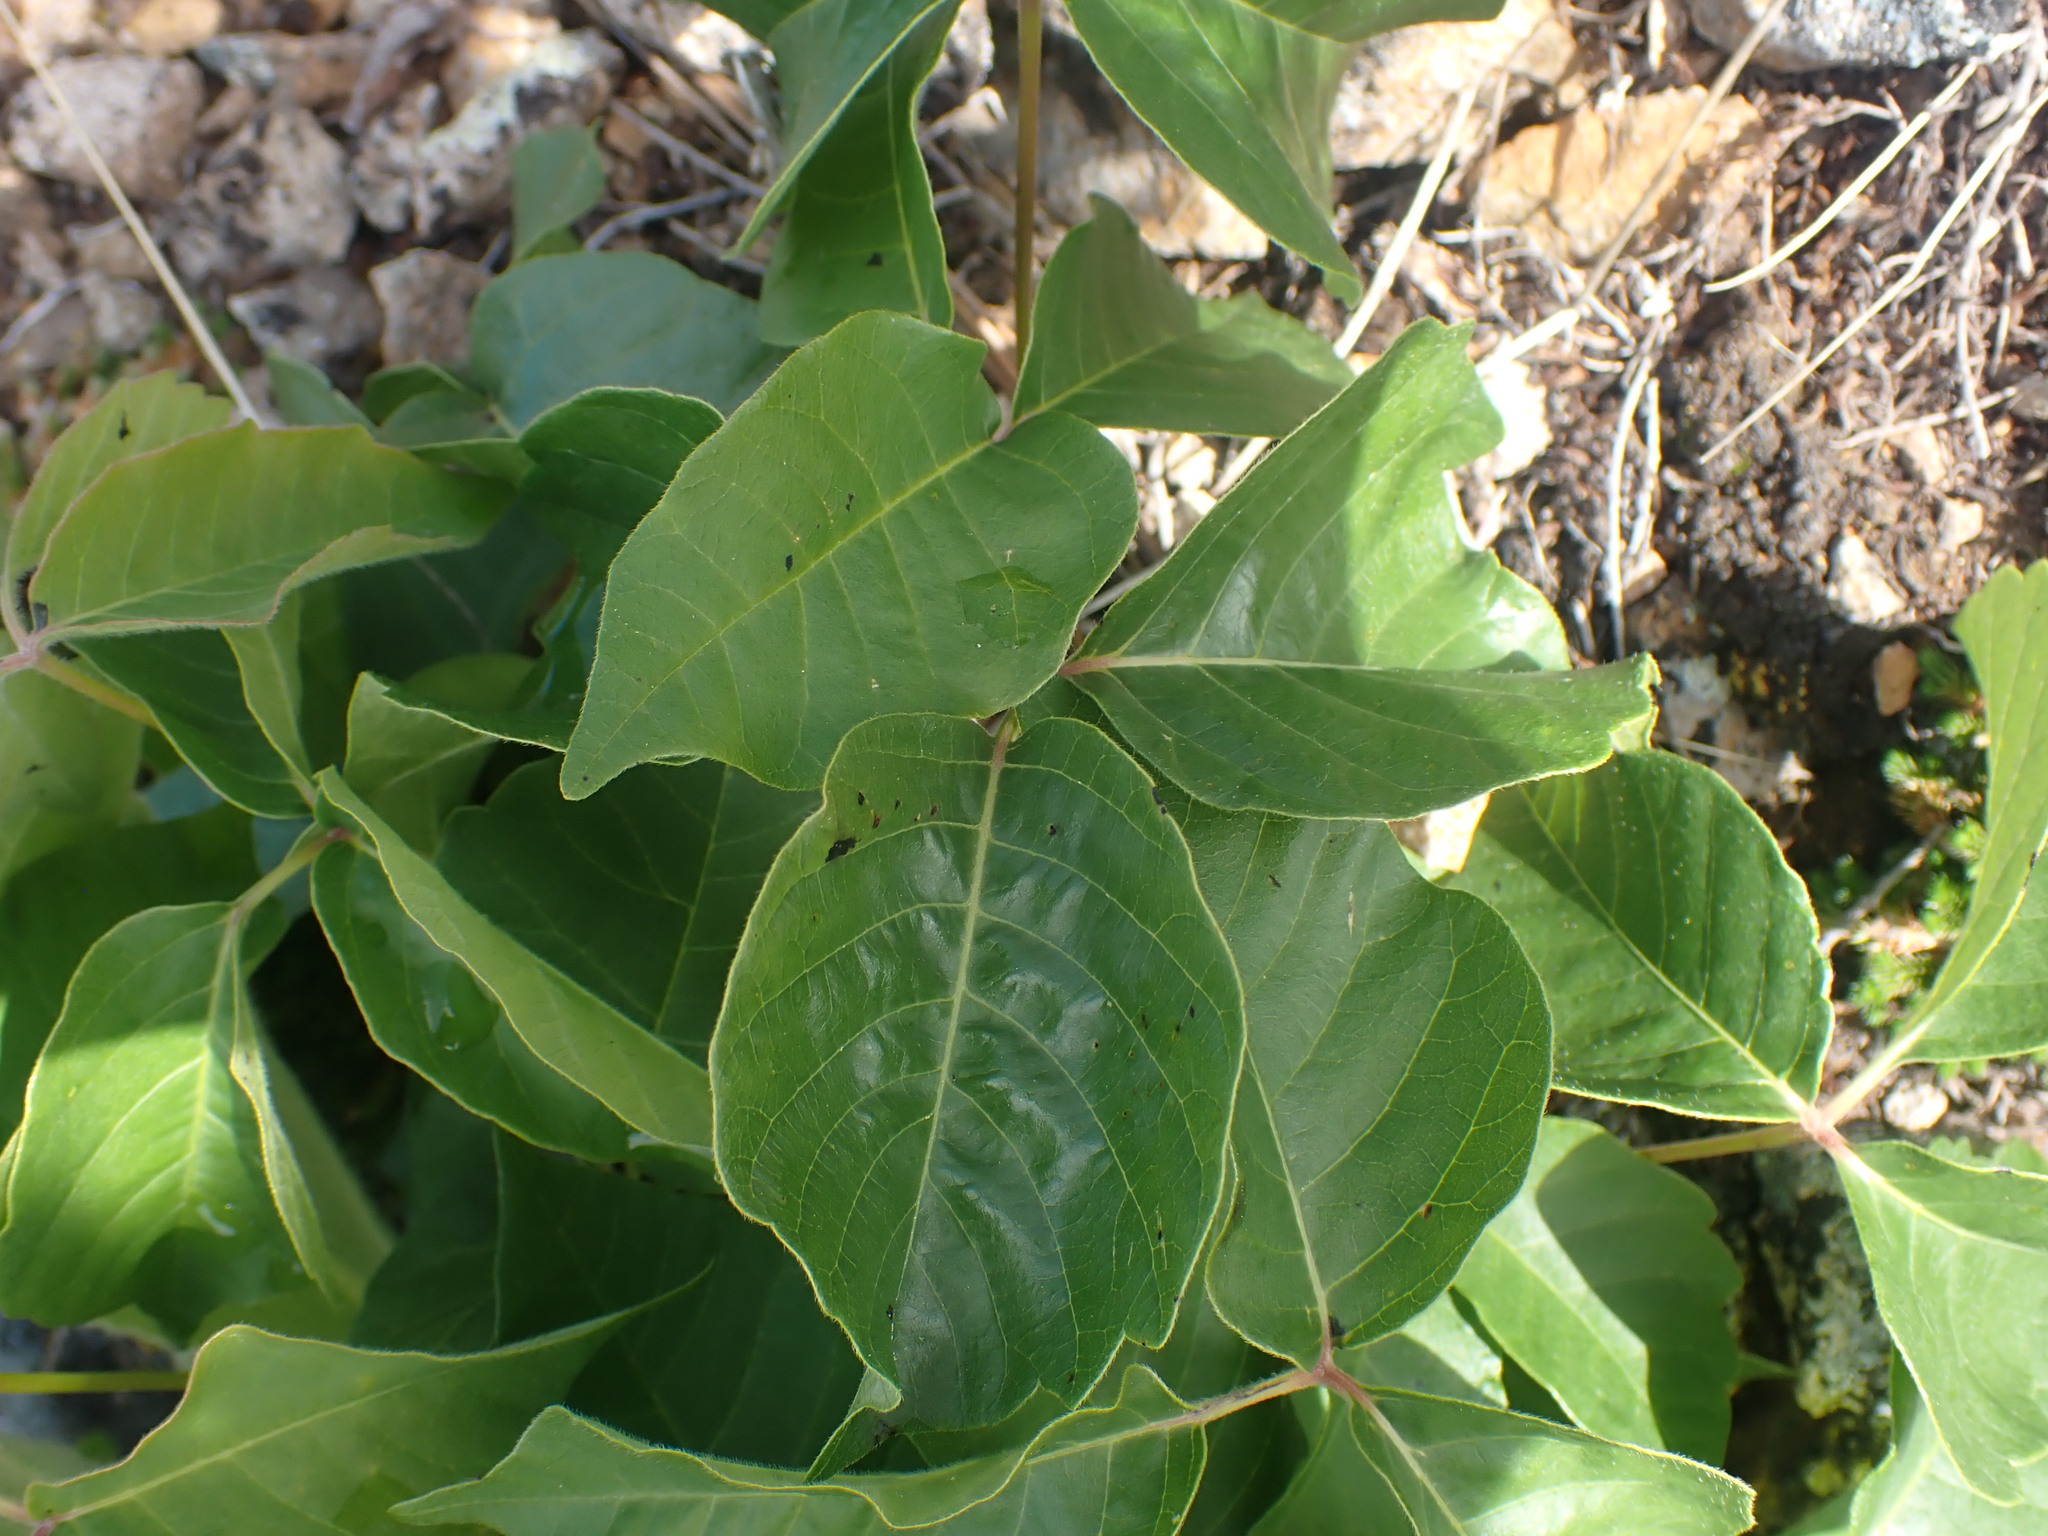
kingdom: Plantae
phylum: Tracheophyta
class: Magnoliopsida
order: Sapindales
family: Anacardiaceae
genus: Toxicodendron
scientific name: Toxicodendron rydbergii
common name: Rydberg's poison-ivy
